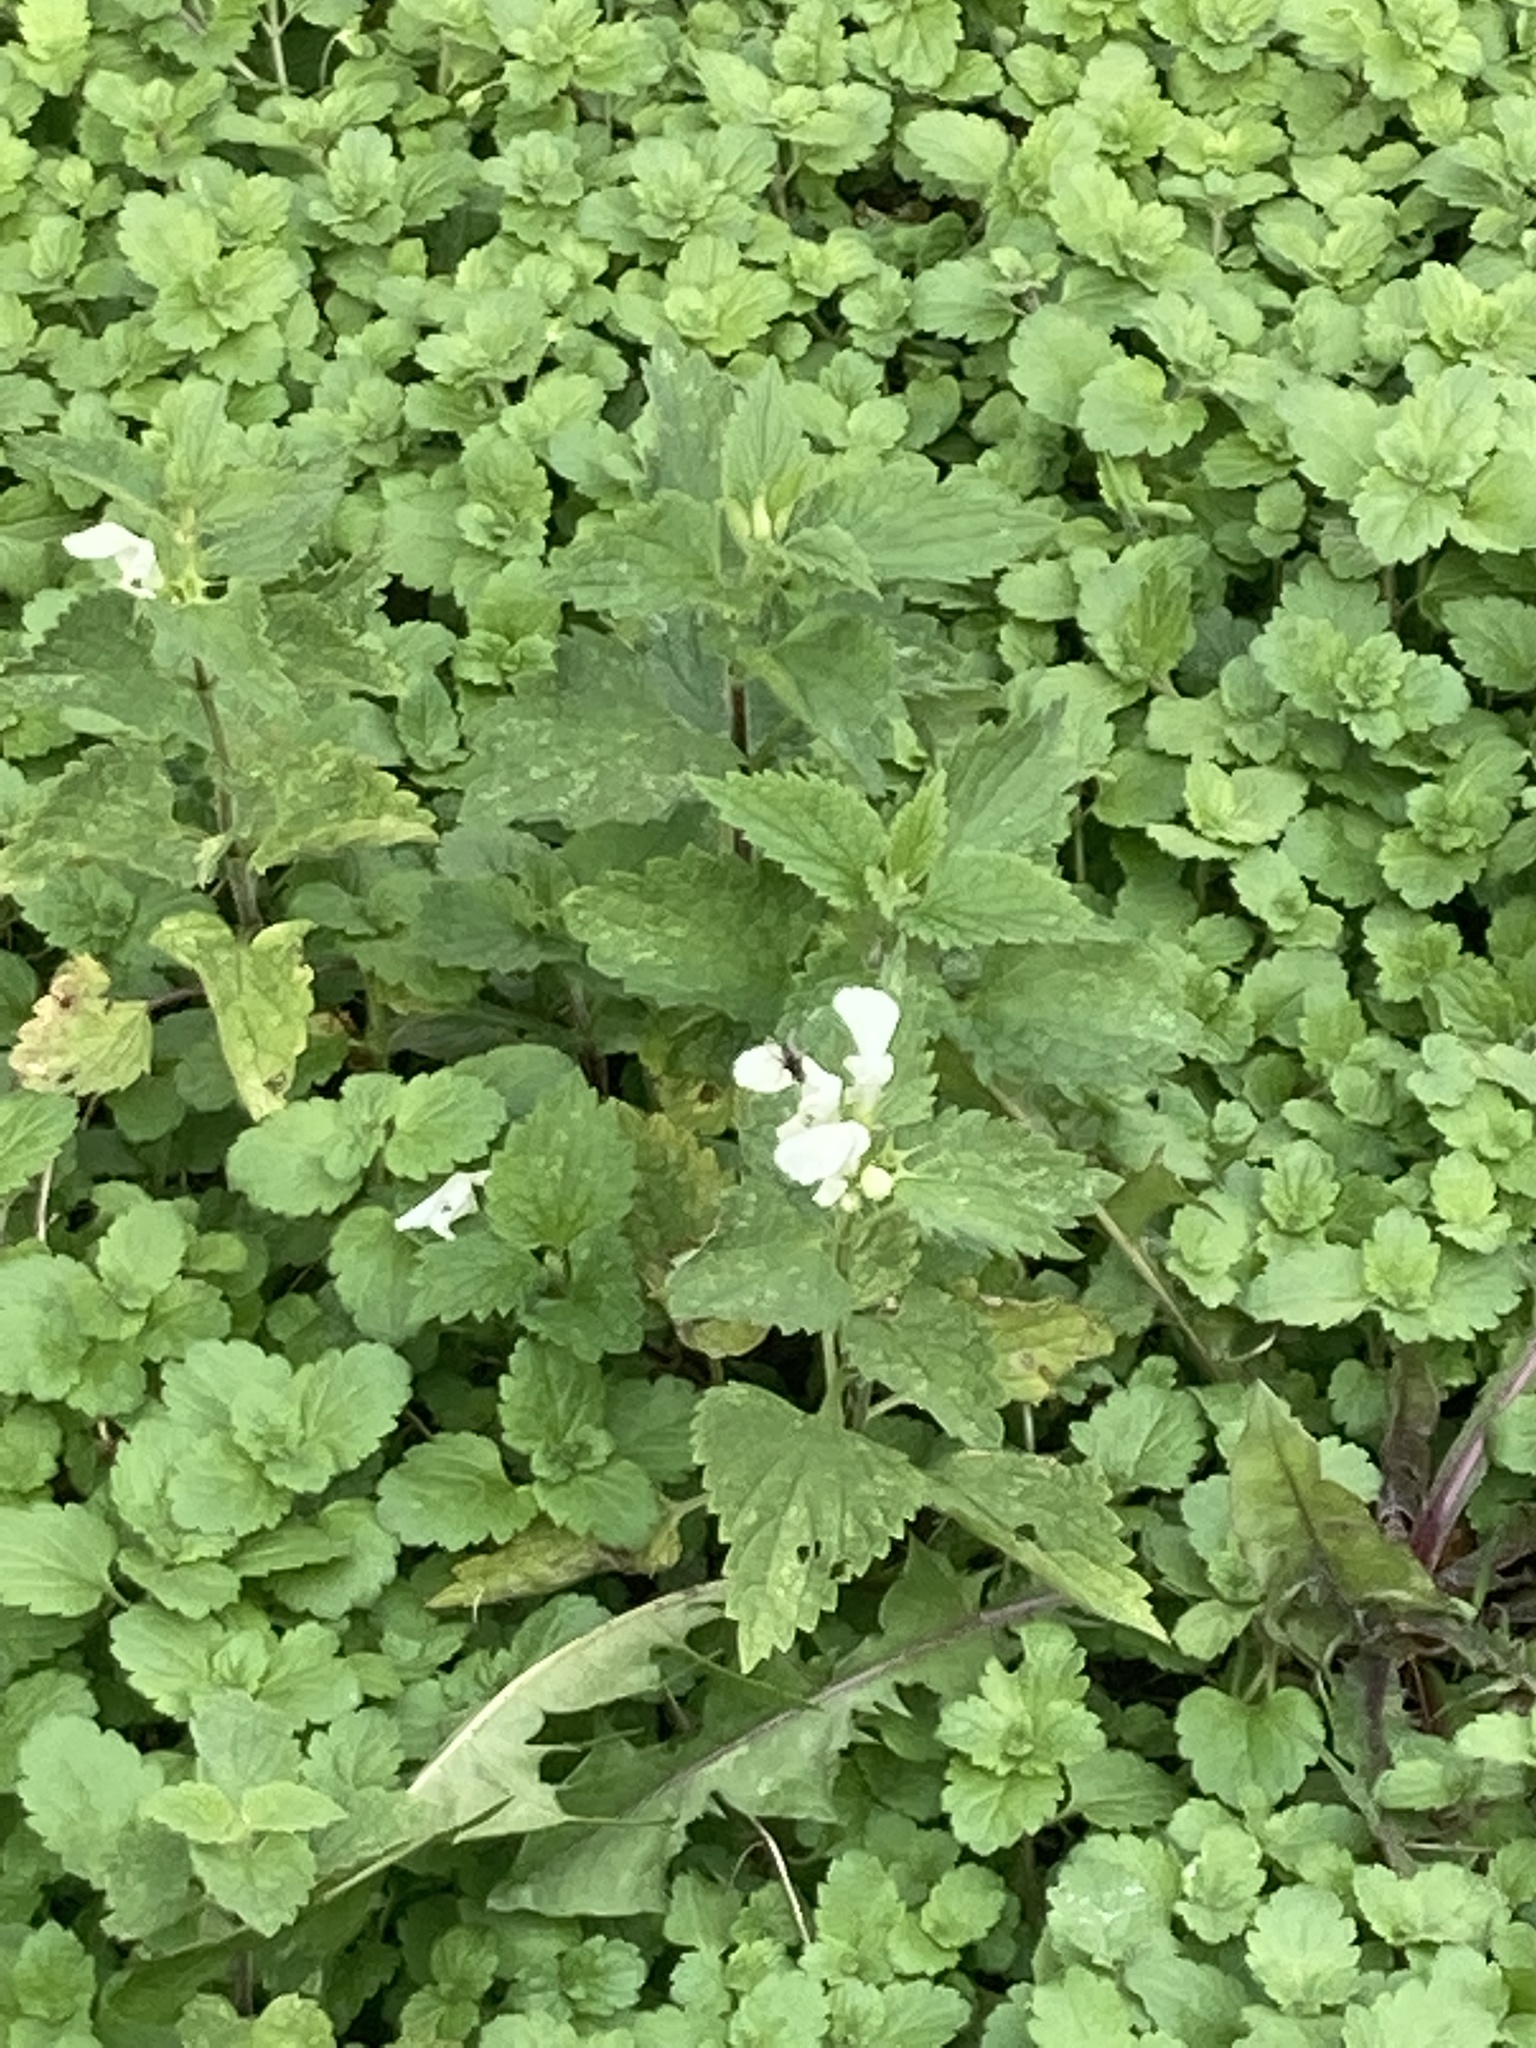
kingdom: Plantae
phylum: Tracheophyta
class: Magnoliopsida
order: Lamiales
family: Lamiaceae
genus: Lamium
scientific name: Lamium album
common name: White dead-nettle
